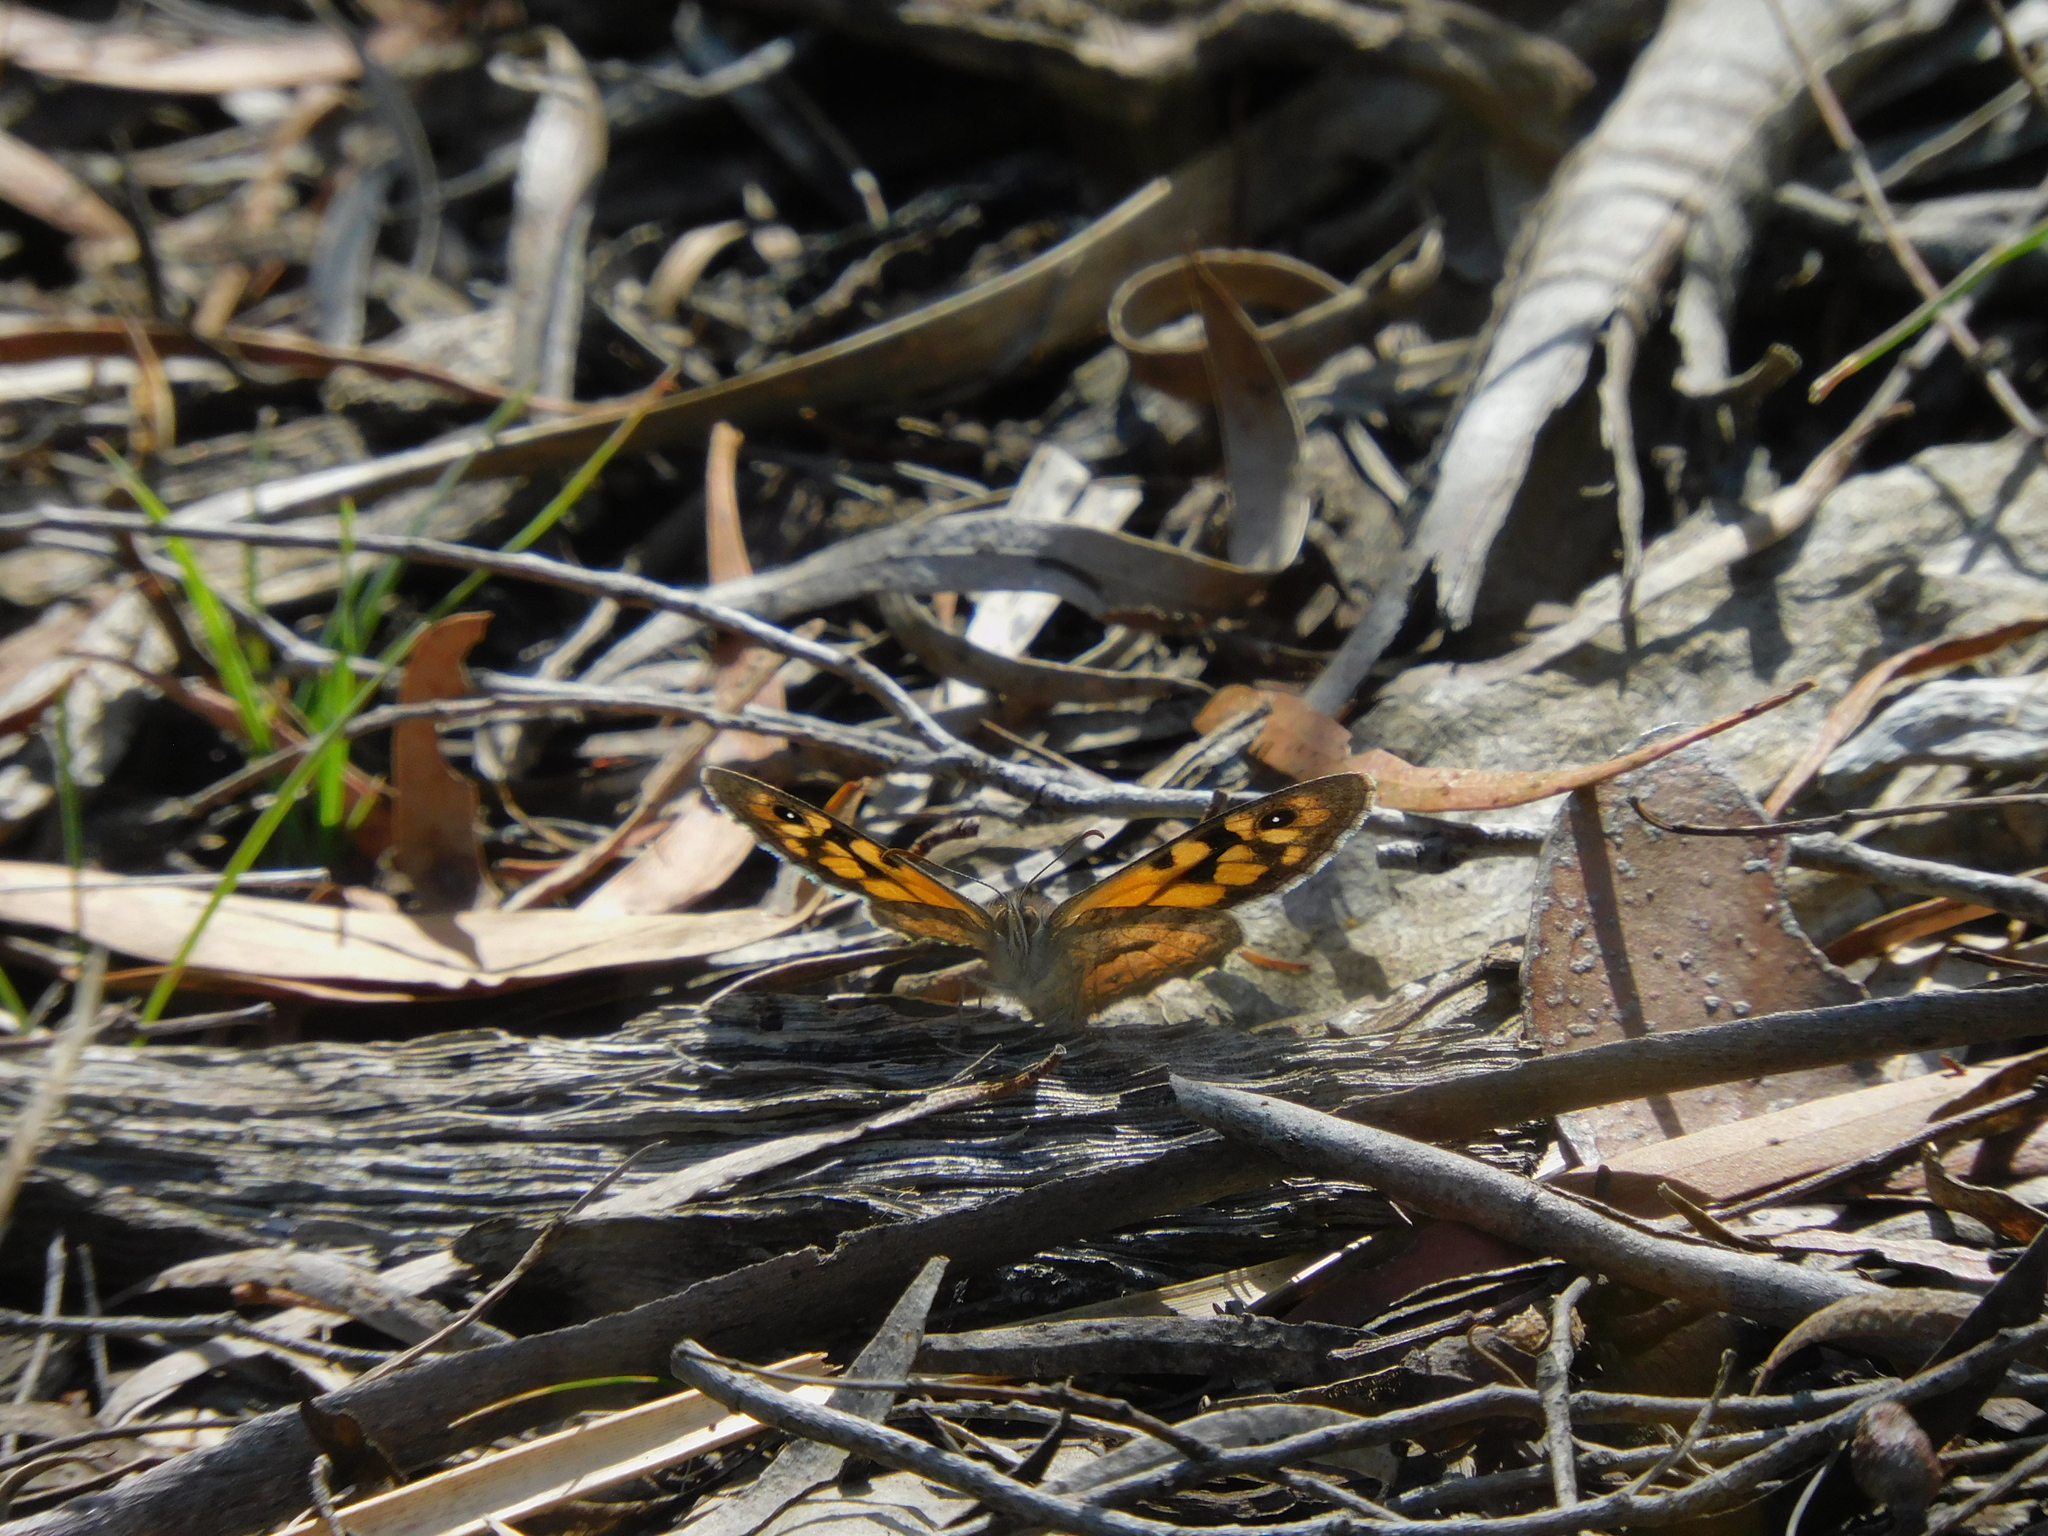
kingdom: Animalia
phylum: Arthropoda
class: Insecta
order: Lepidoptera
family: Nymphalidae
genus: Geitoneura
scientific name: Geitoneura klugii
